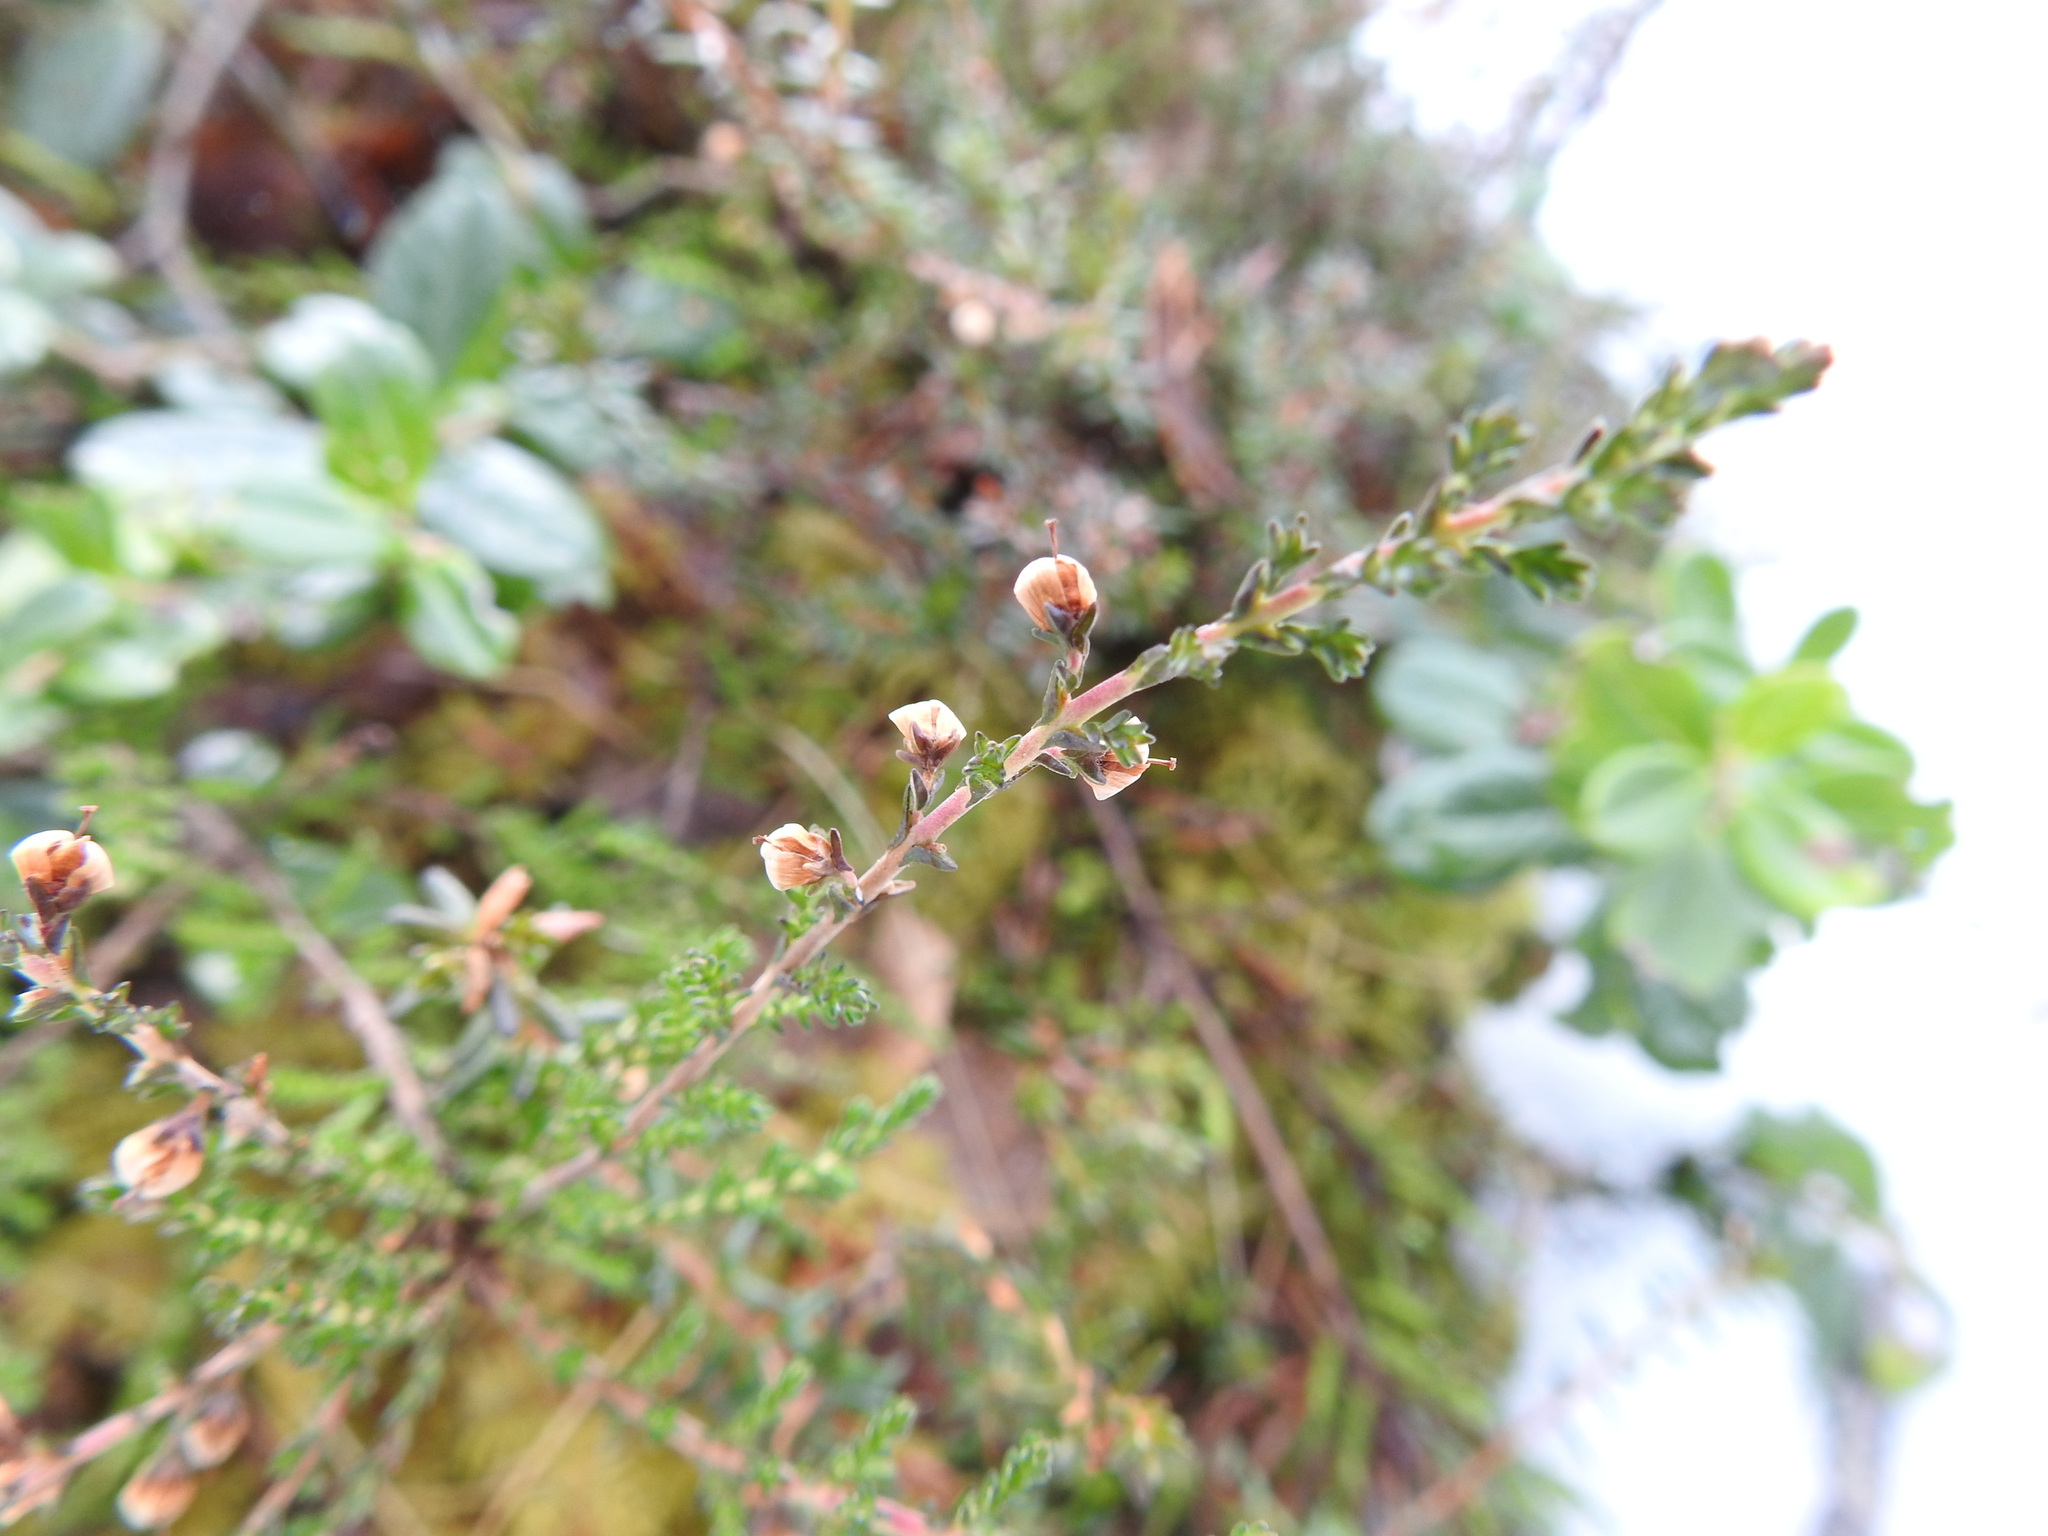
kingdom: Plantae
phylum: Tracheophyta
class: Magnoliopsida
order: Ericales
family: Ericaceae
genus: Calluna
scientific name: Calluna vulgaris
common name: Heather
